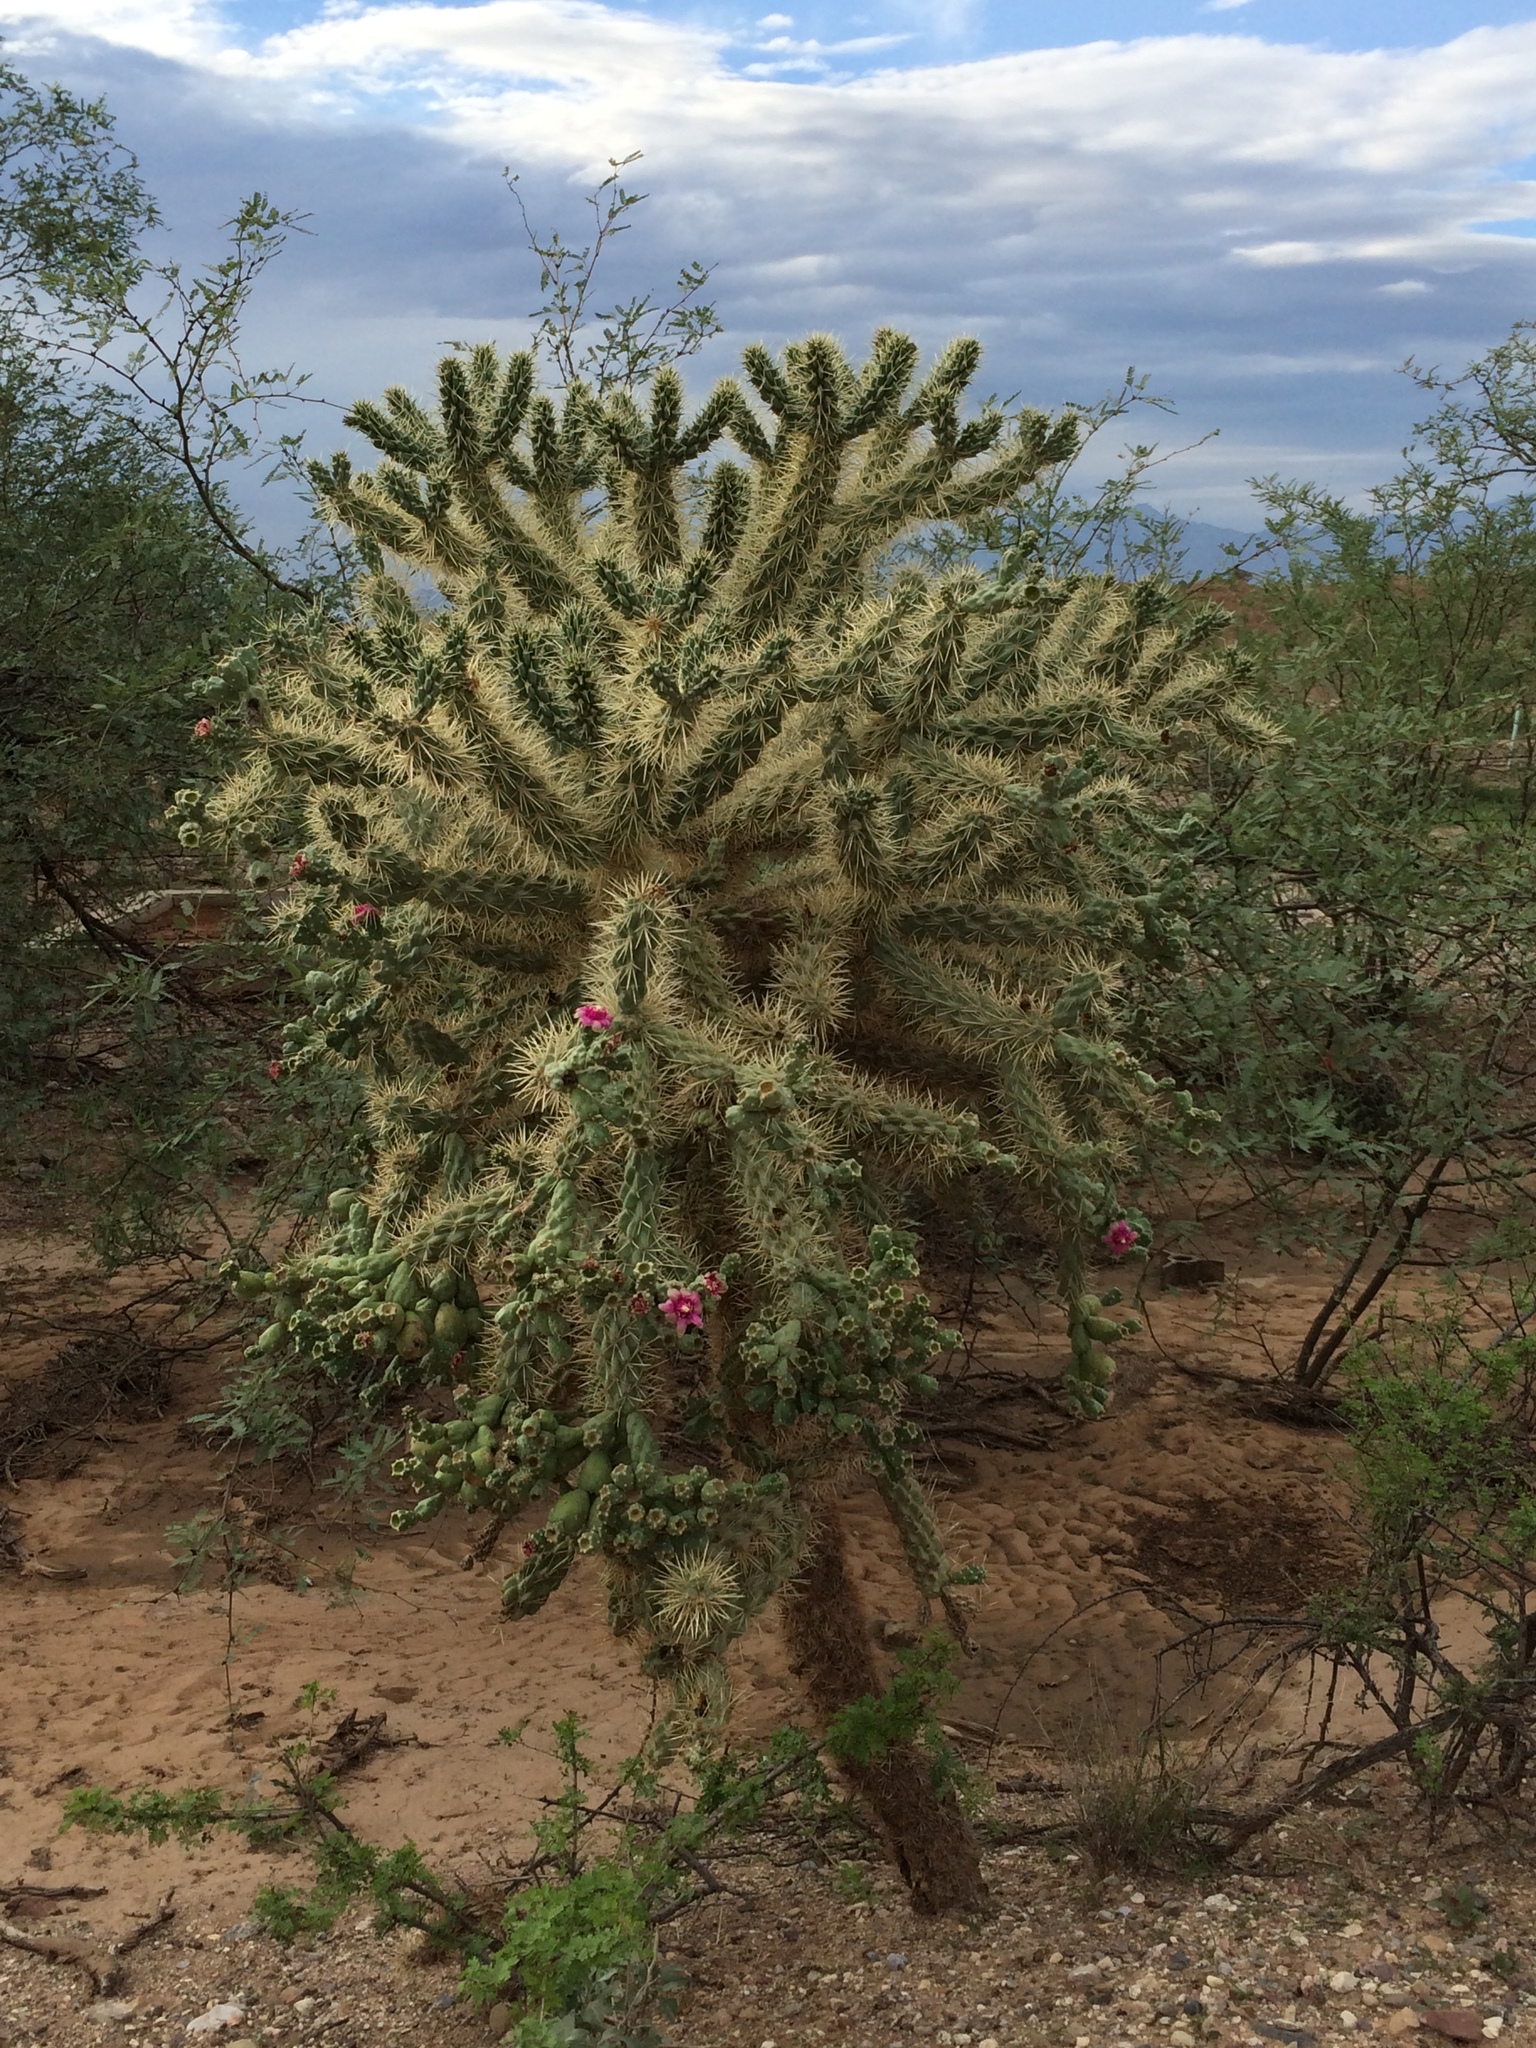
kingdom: Plantae
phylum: Tracheophyta
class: Magnoliopsida
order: Caryophyllales
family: Cactaceae
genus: Cylindropuntia
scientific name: Cylindropuntia fulgida
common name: Jumping cholla
